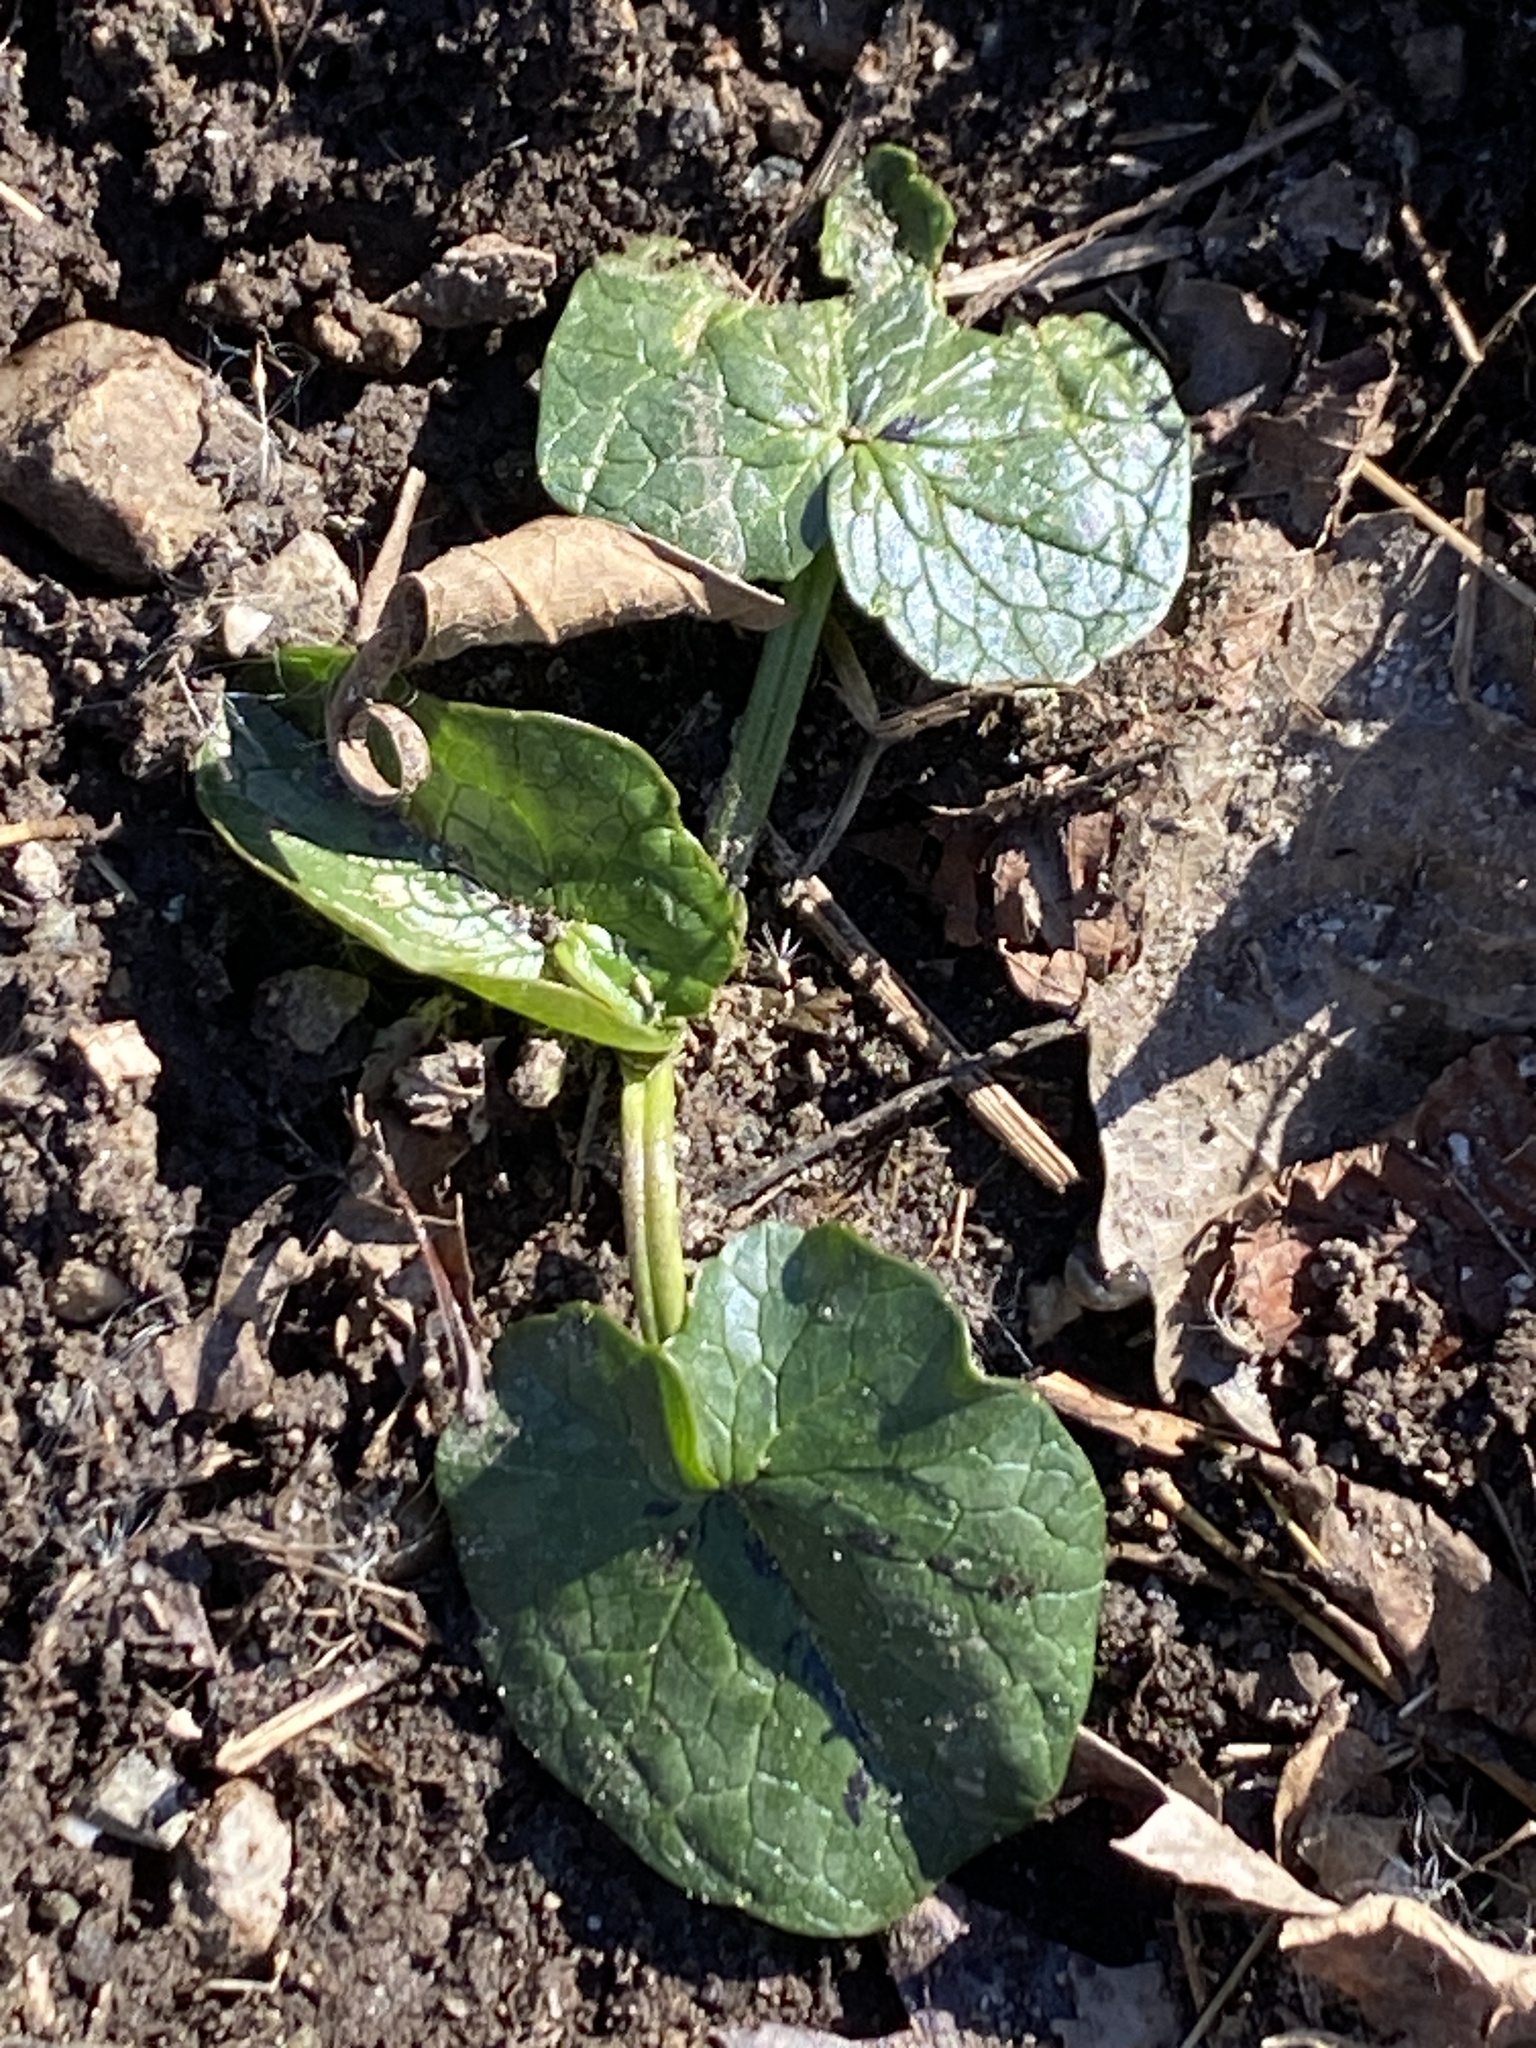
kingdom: Plantae
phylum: Tracheophyta
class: Magnoliopsida
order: Ranunculales
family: Ranunculaceae
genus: Ficaria
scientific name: Ficaria verna
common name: Lesser celandine
